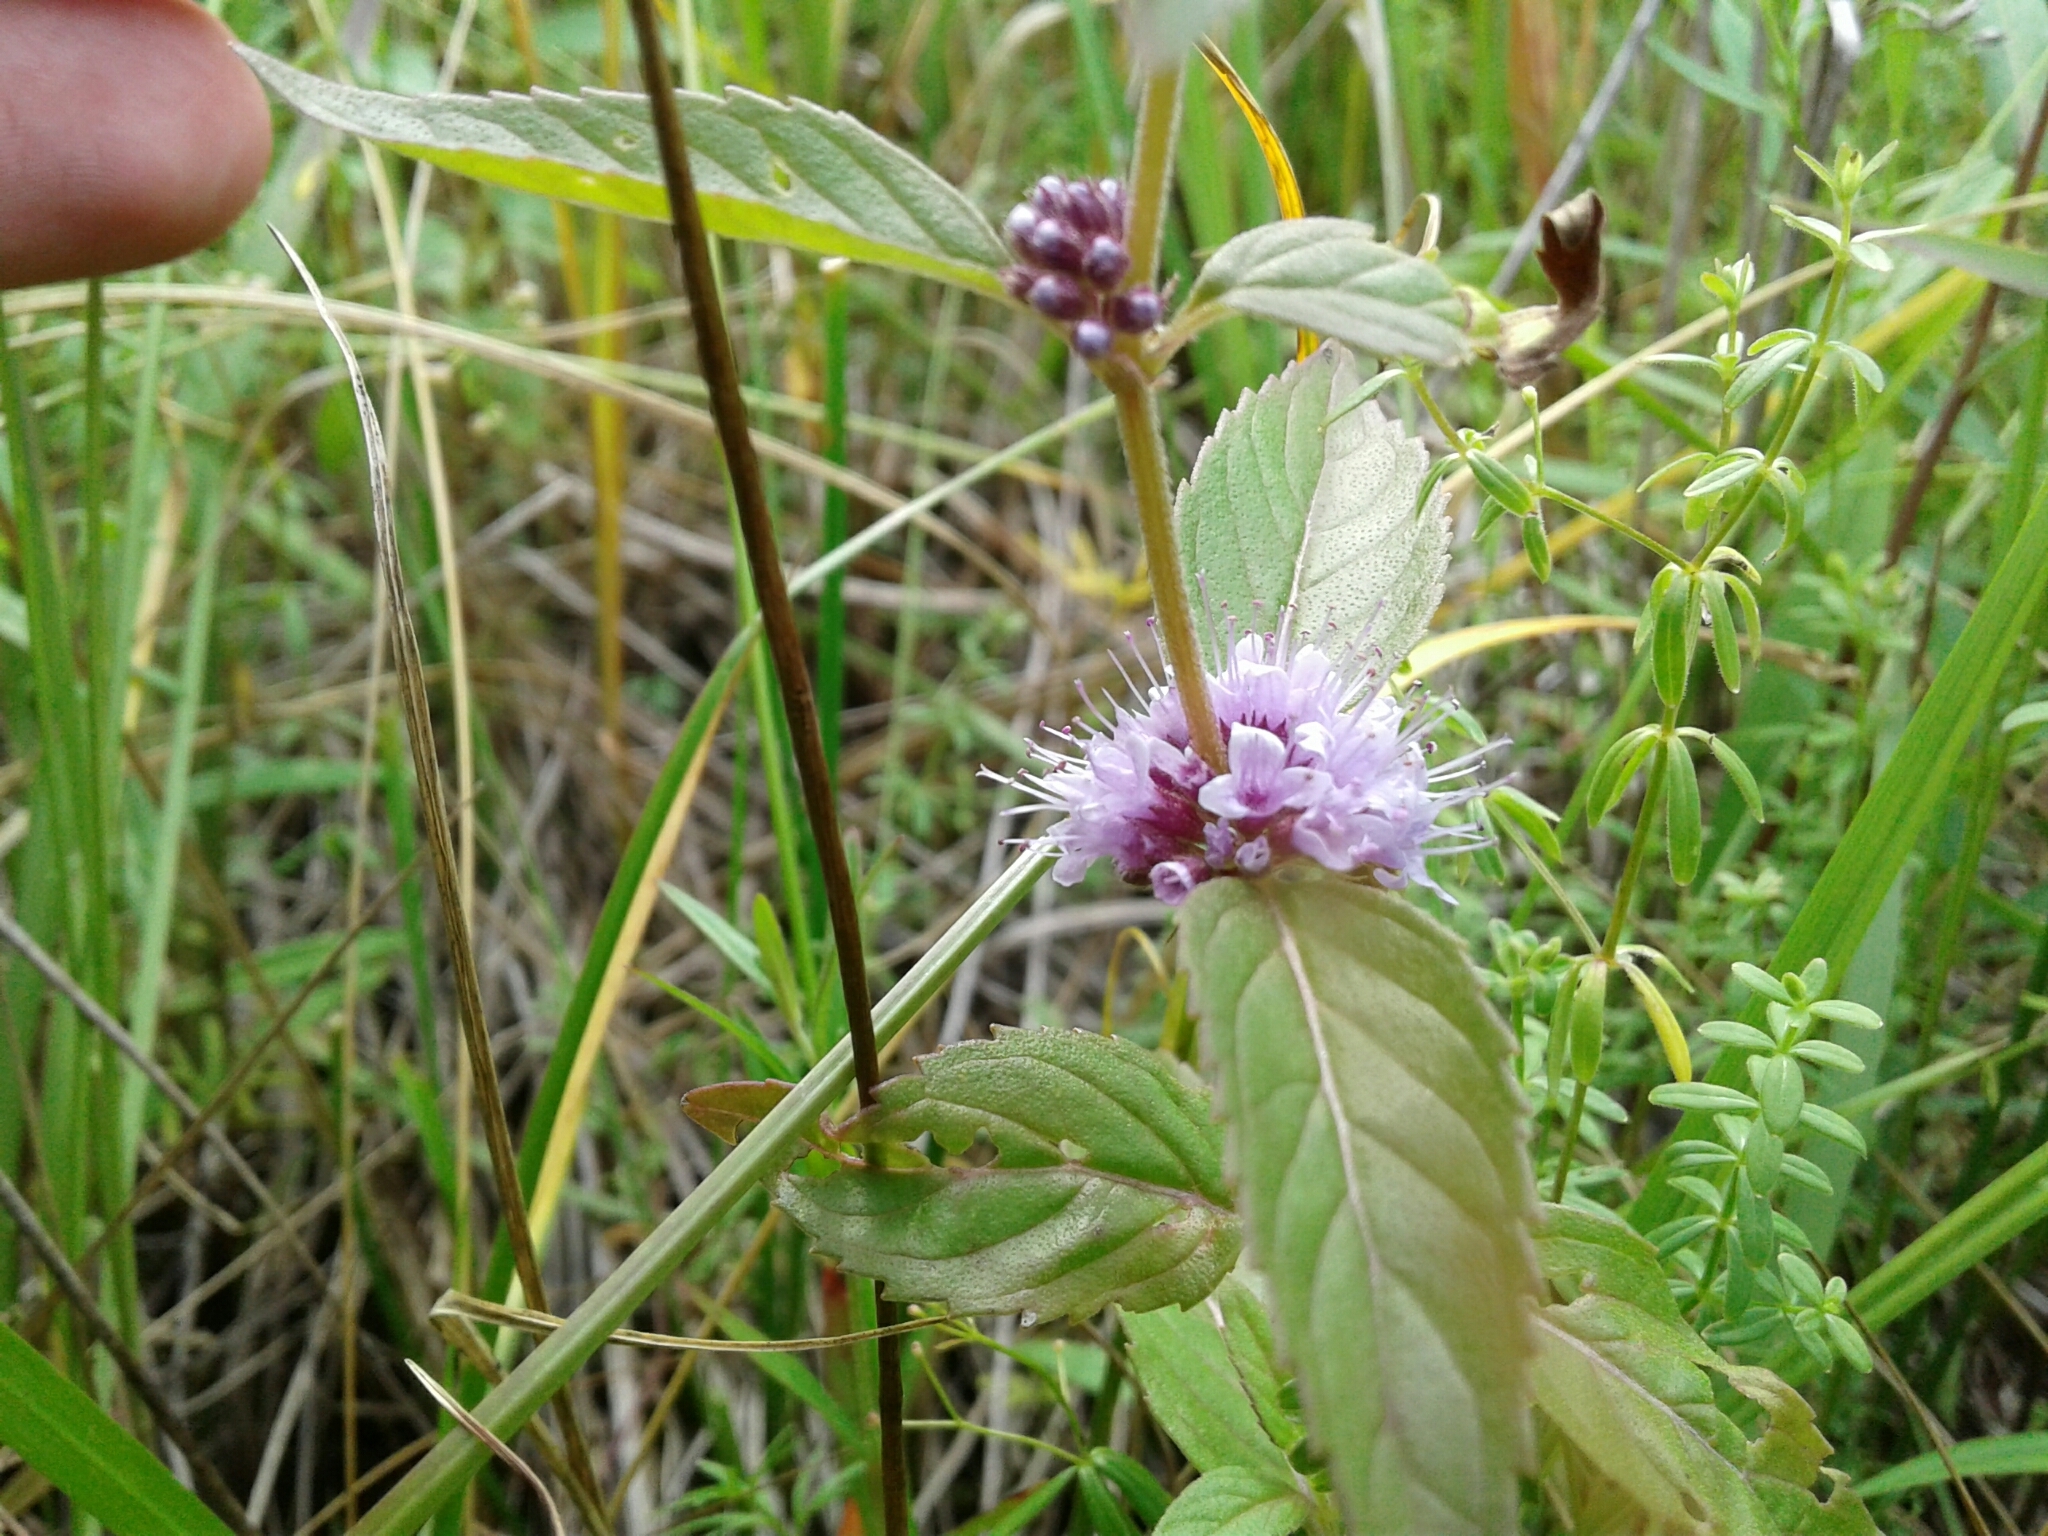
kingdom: Plantae
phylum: Tracheophyta
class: Magnoliopsida
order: Lamiales
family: Lamiaceae
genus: Mentha
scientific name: Mentha canadensis
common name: American corn mint
